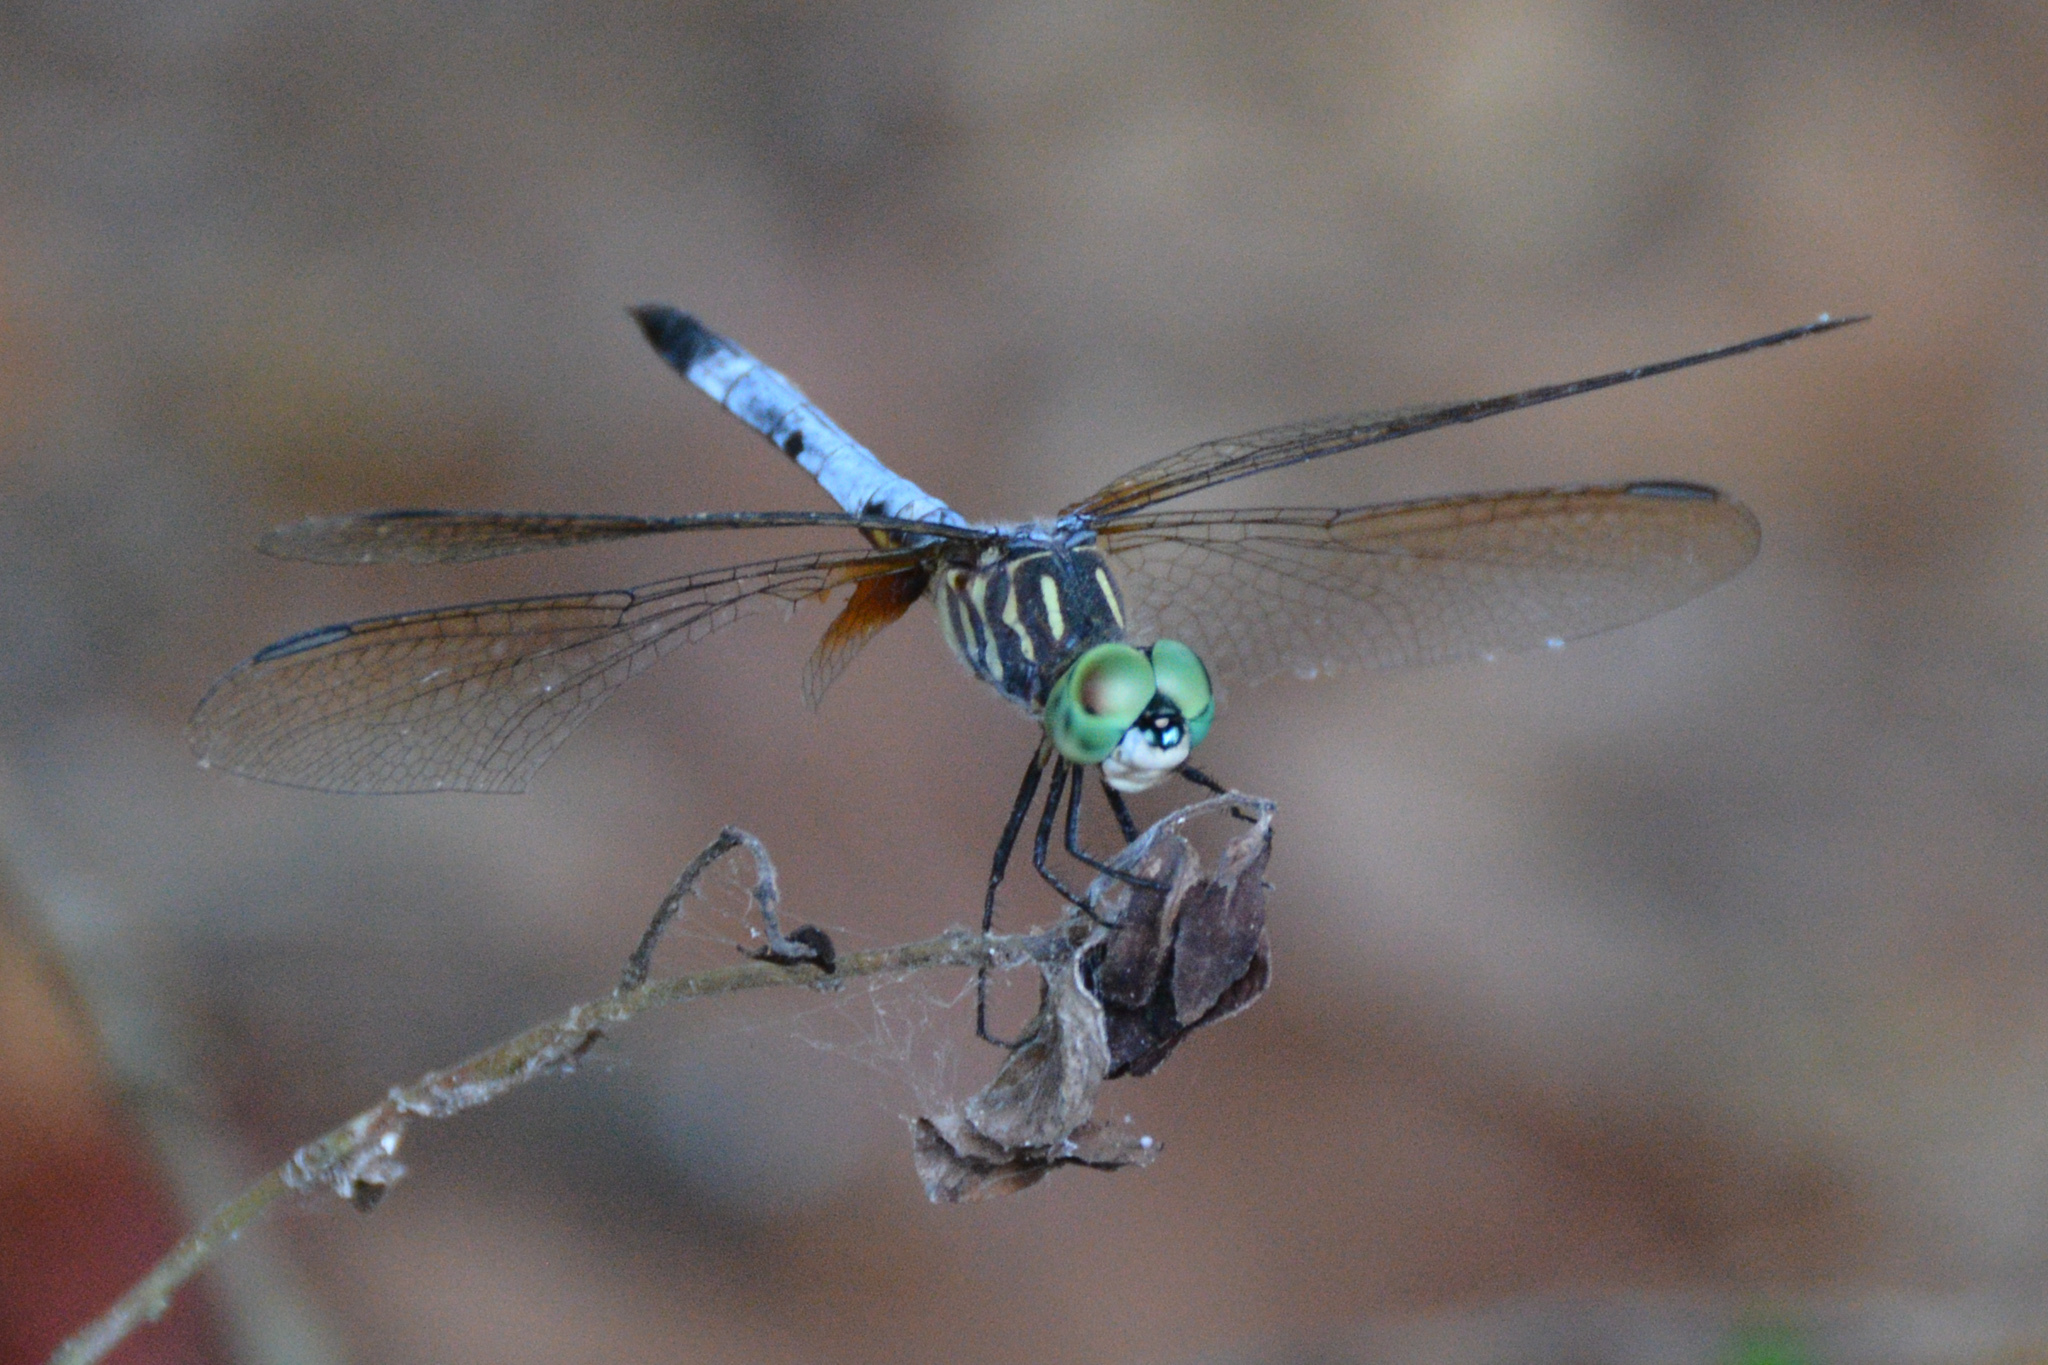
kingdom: Animalia
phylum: Arthropoda
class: Insecta
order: Odonata
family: Libellulidae
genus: Pachydiplax
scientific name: Pachydiplax longipennis
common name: Blue dasher
